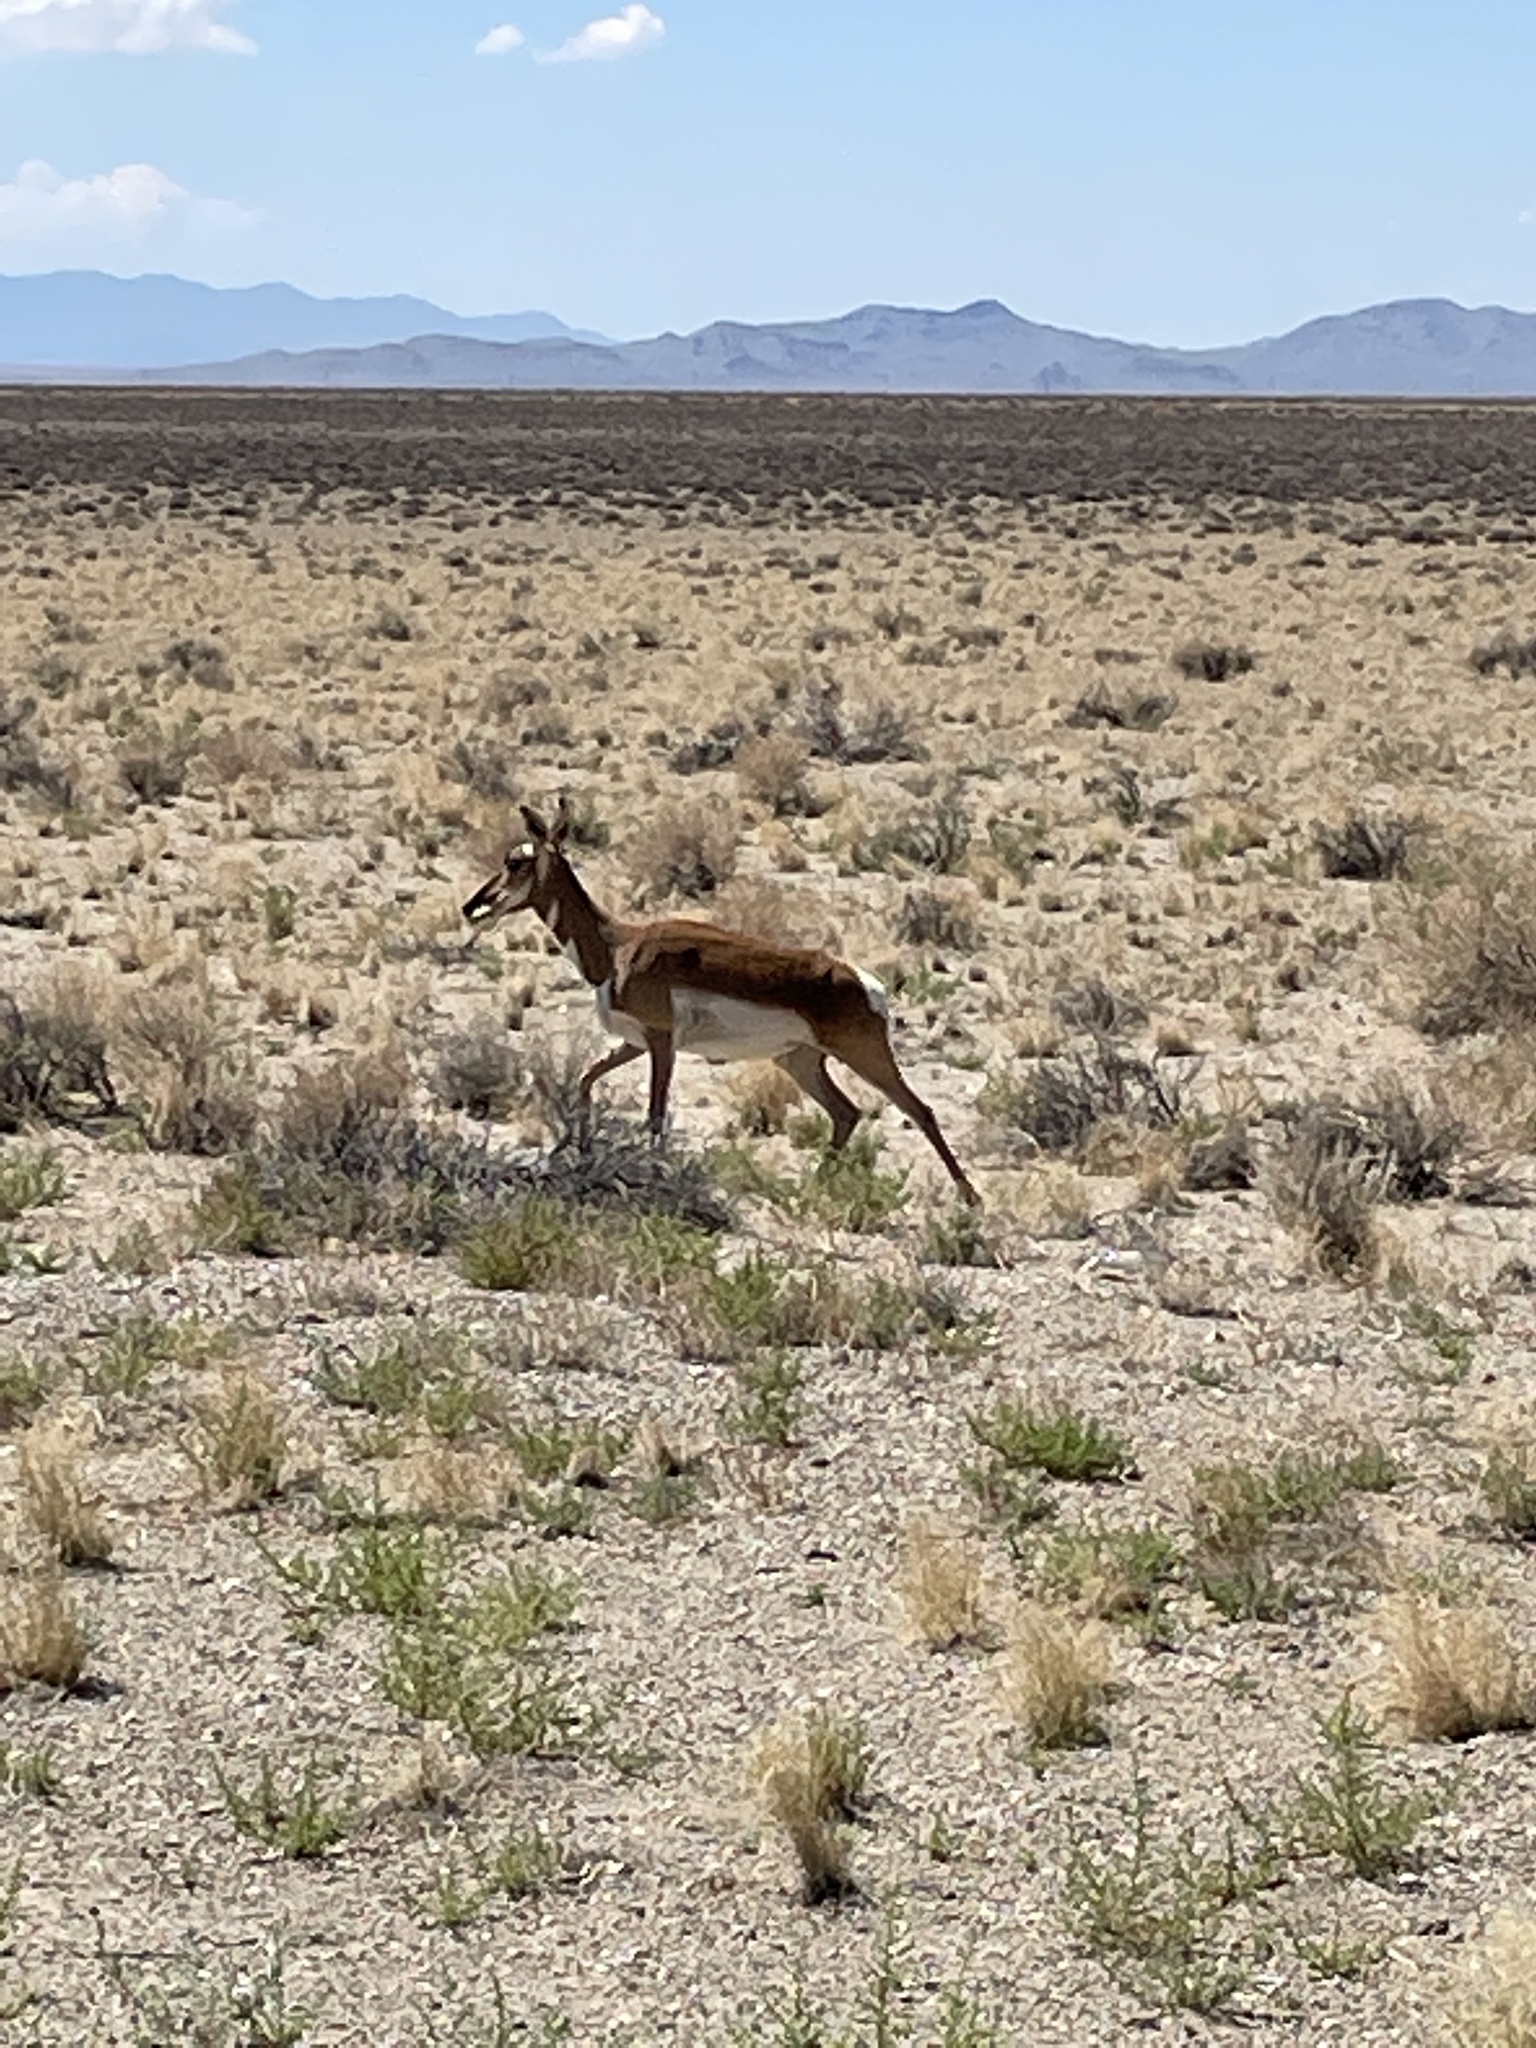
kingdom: Animalia
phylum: Chordata
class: Mammalia
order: Artiodactyla
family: Antilocapridae
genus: Antilocapra
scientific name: Antilocapra americana
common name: Pronghorn
